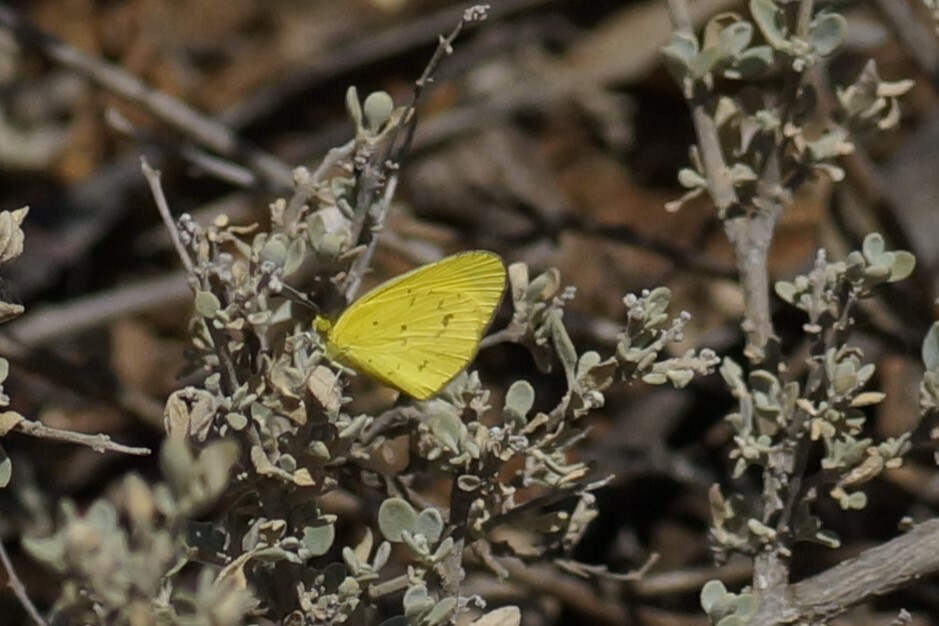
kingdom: Animalia
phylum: Arthropoda
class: Insecta
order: Lepidoptera
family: Pieridae
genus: Eurema
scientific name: Eurema smilax
